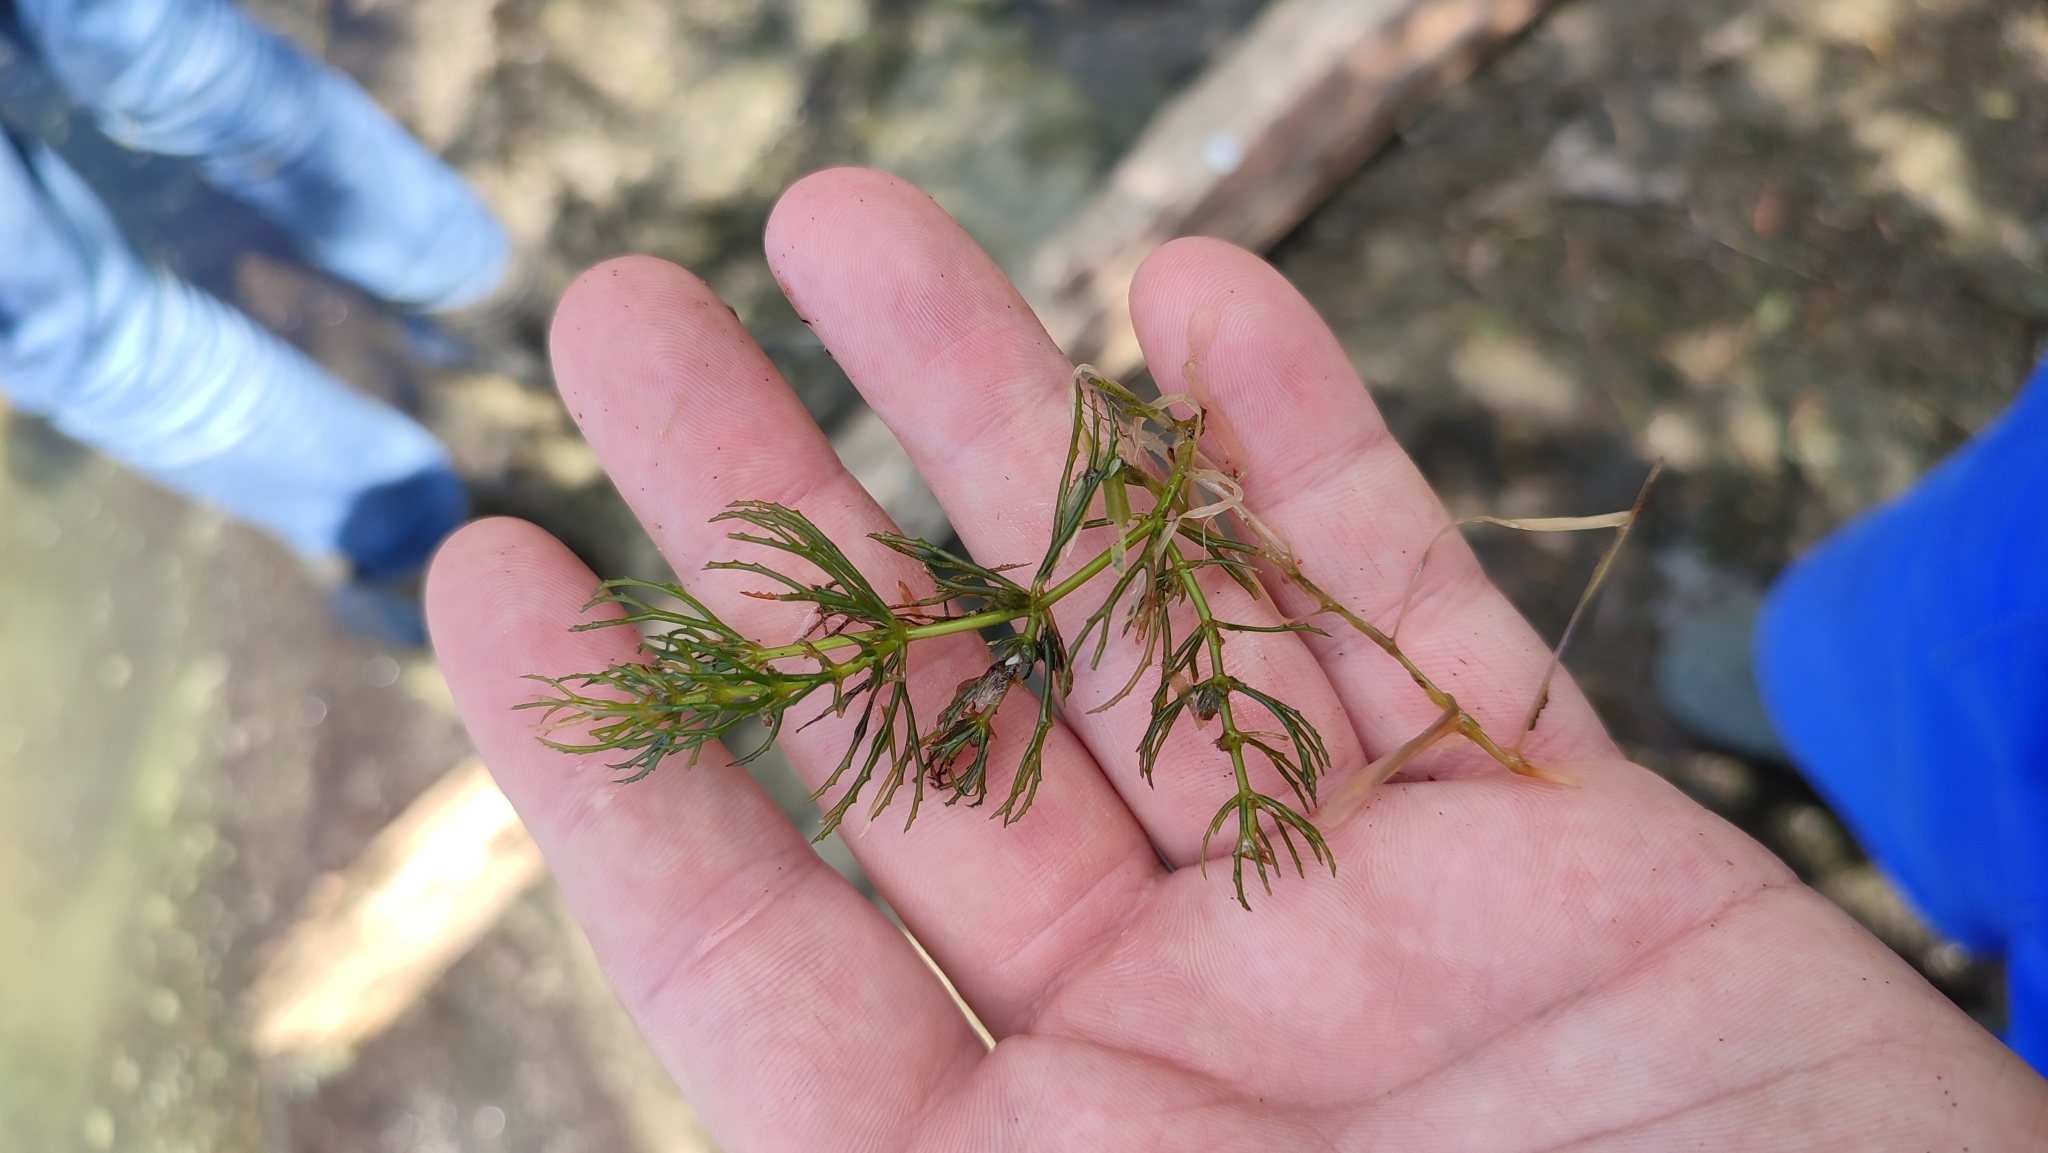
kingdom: Plantae
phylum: Tracheophyta
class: Magnoliopsida
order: Ceratophyllales
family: Ceratophyllaceae
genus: Ceratophyllum
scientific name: Ceratophyllum demersum
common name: Rigid hornwort
